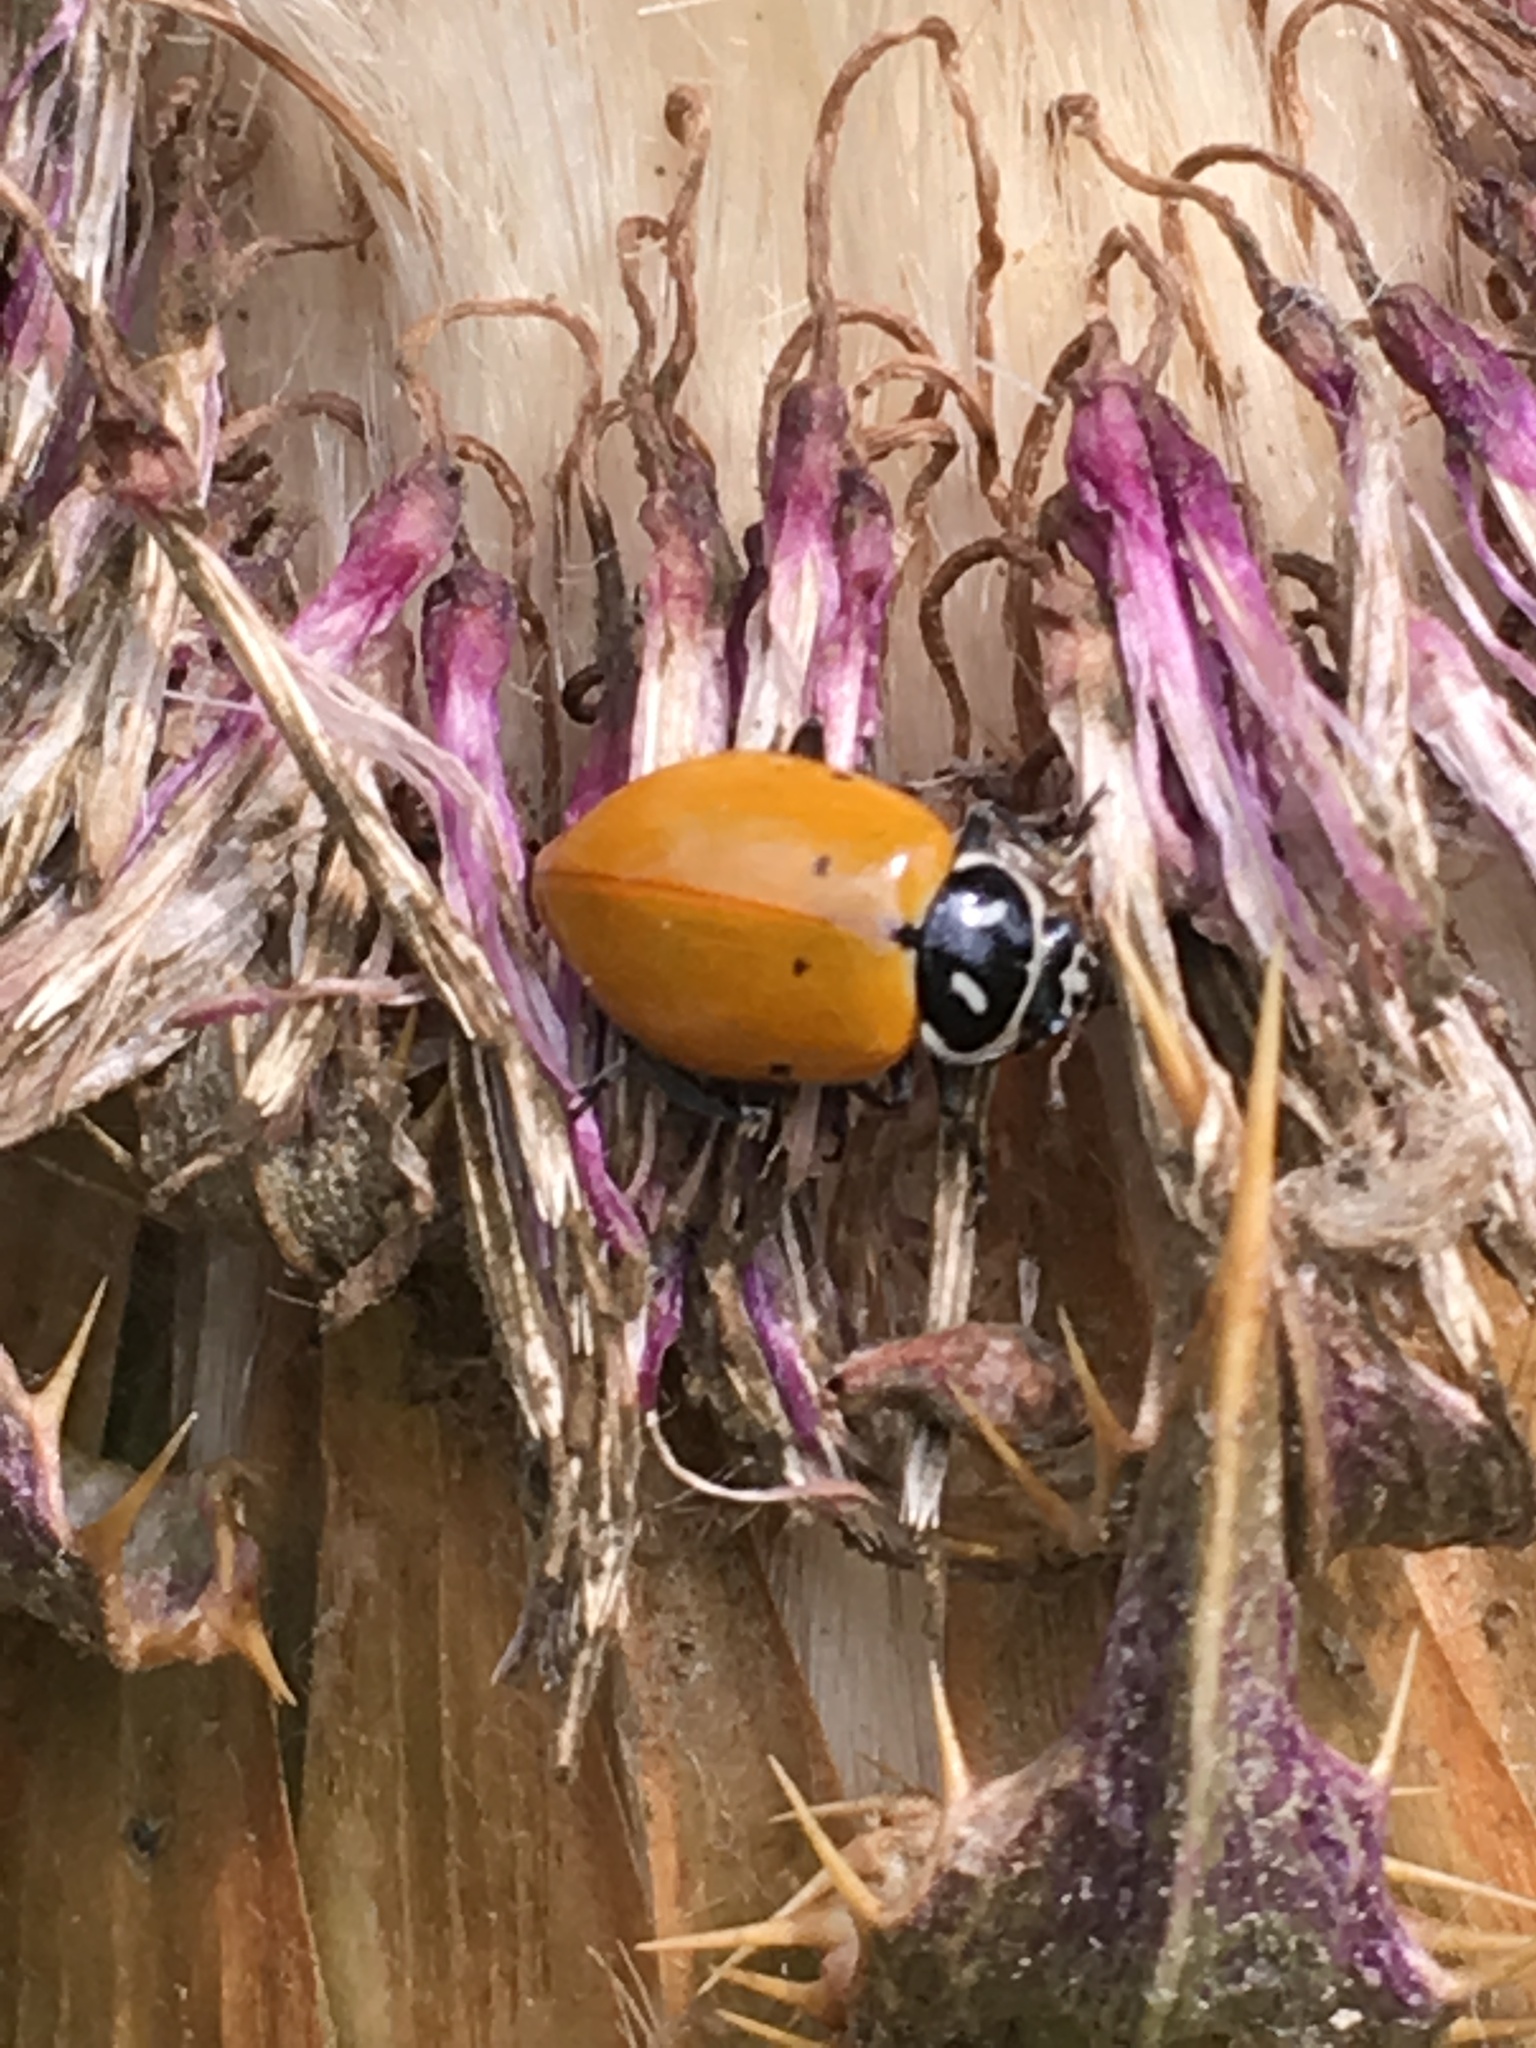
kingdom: Animalia
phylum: Arthropoda
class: Insecta
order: Coleoptera
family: Coccinellidae
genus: Hippodamia
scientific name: Hippodamia convergens
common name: Convergent lady beetle
